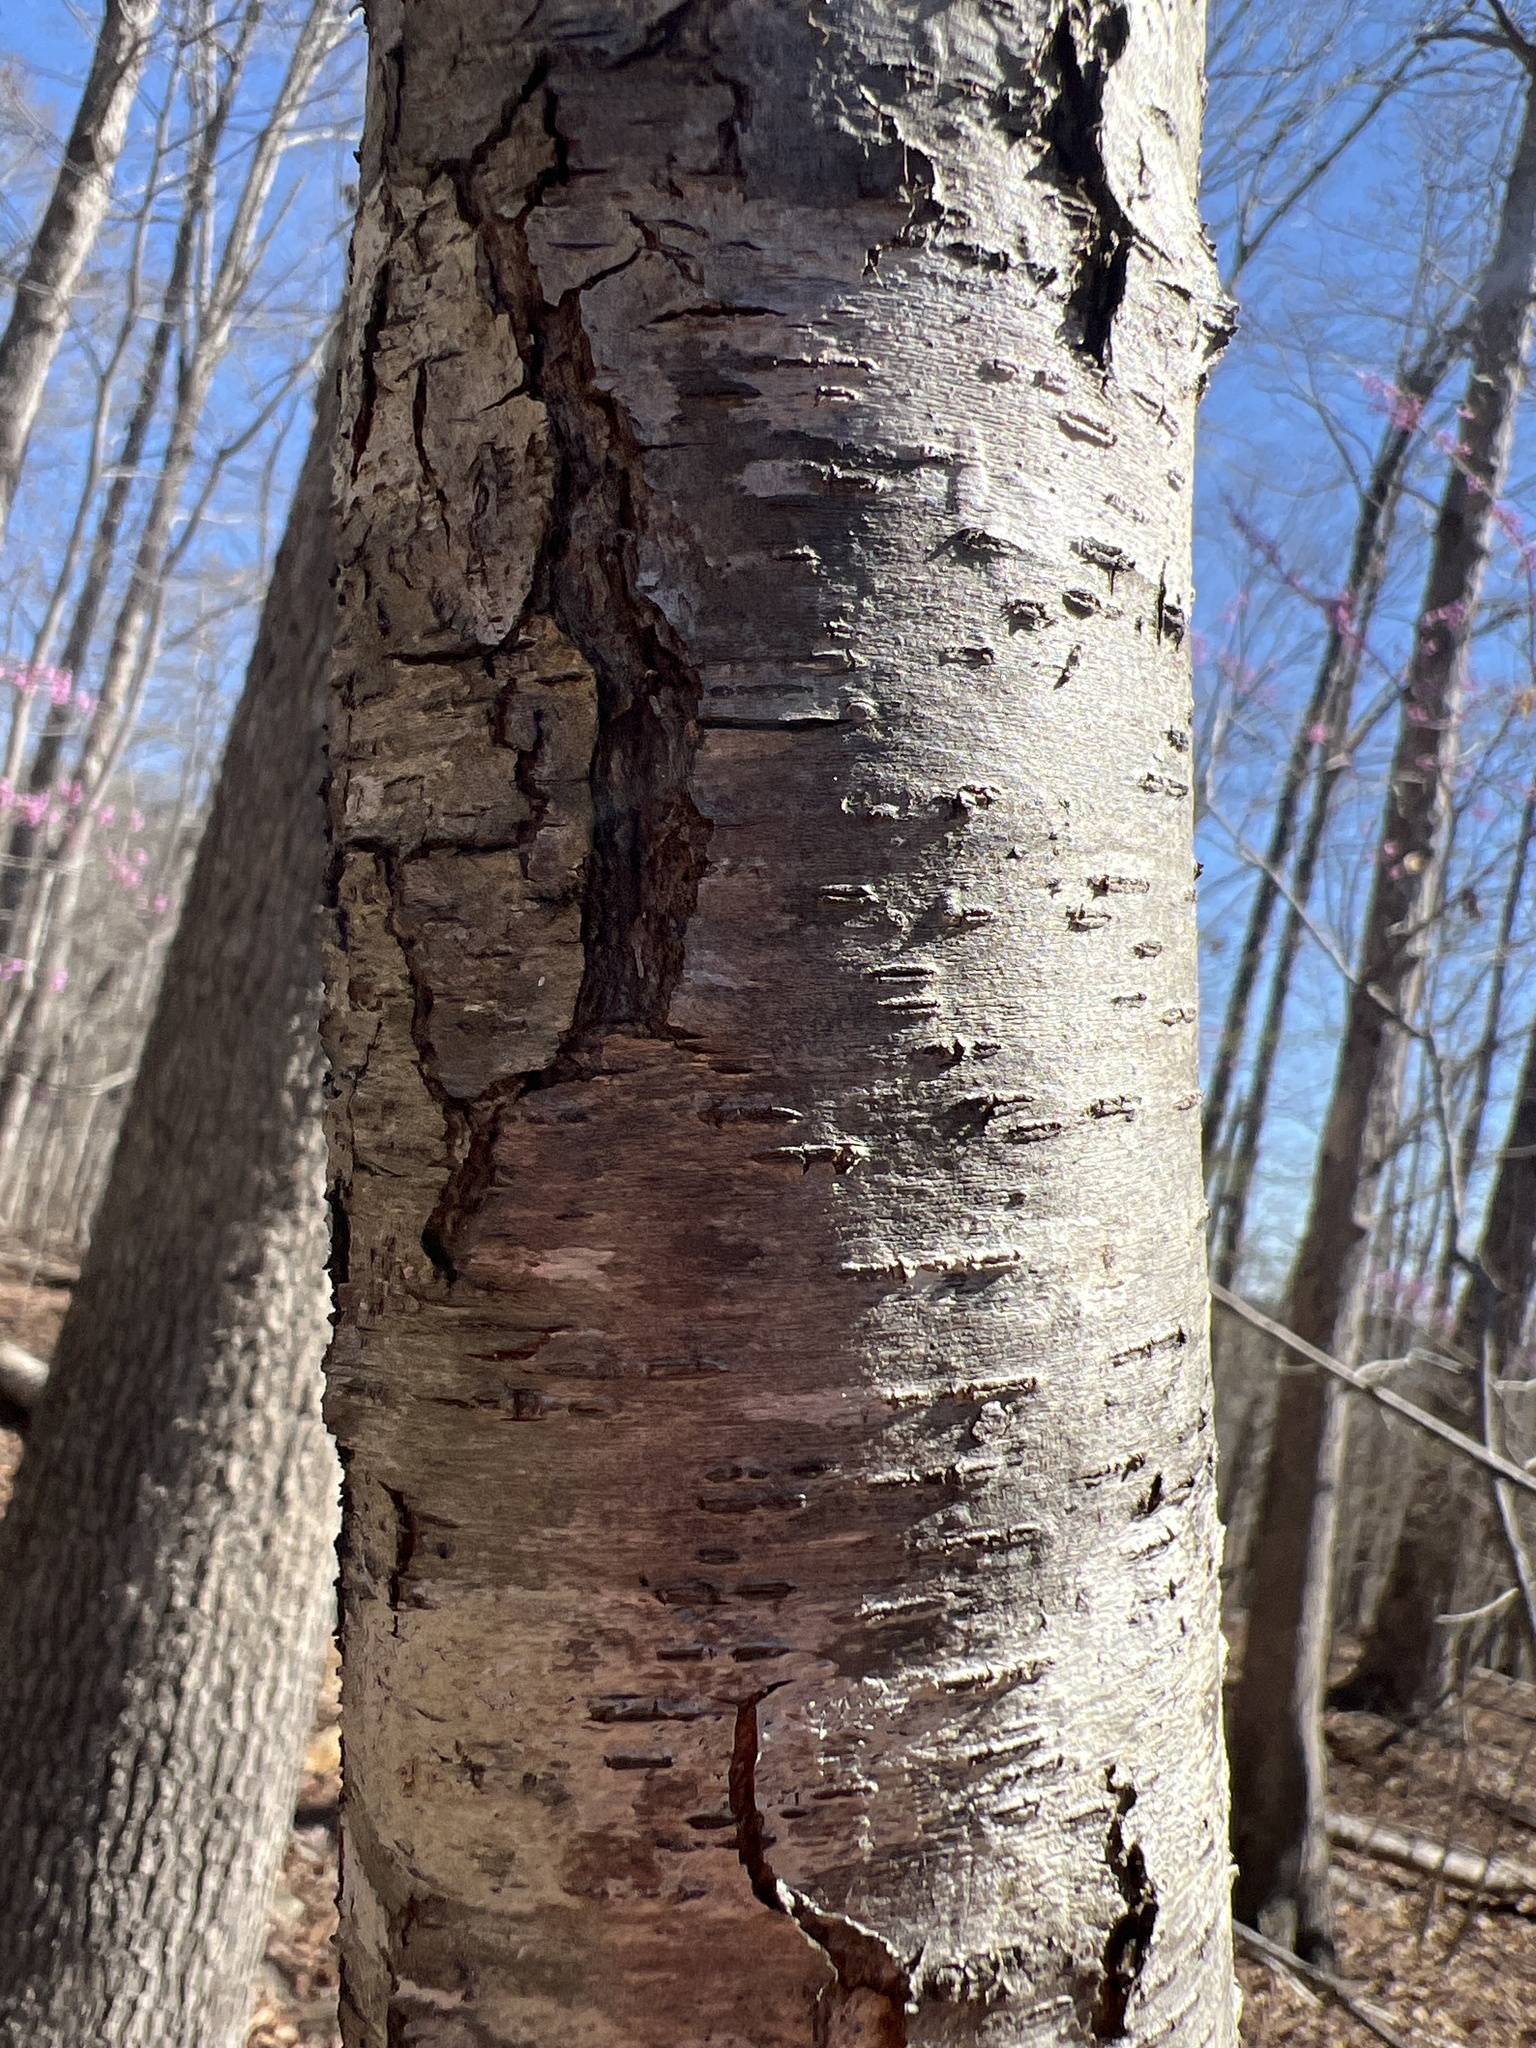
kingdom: Plantae
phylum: Tracheophyta
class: Magnoliopsida
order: Rosales
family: Rosaceae
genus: Prunus
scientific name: Prunus serotina
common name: Black cherry
